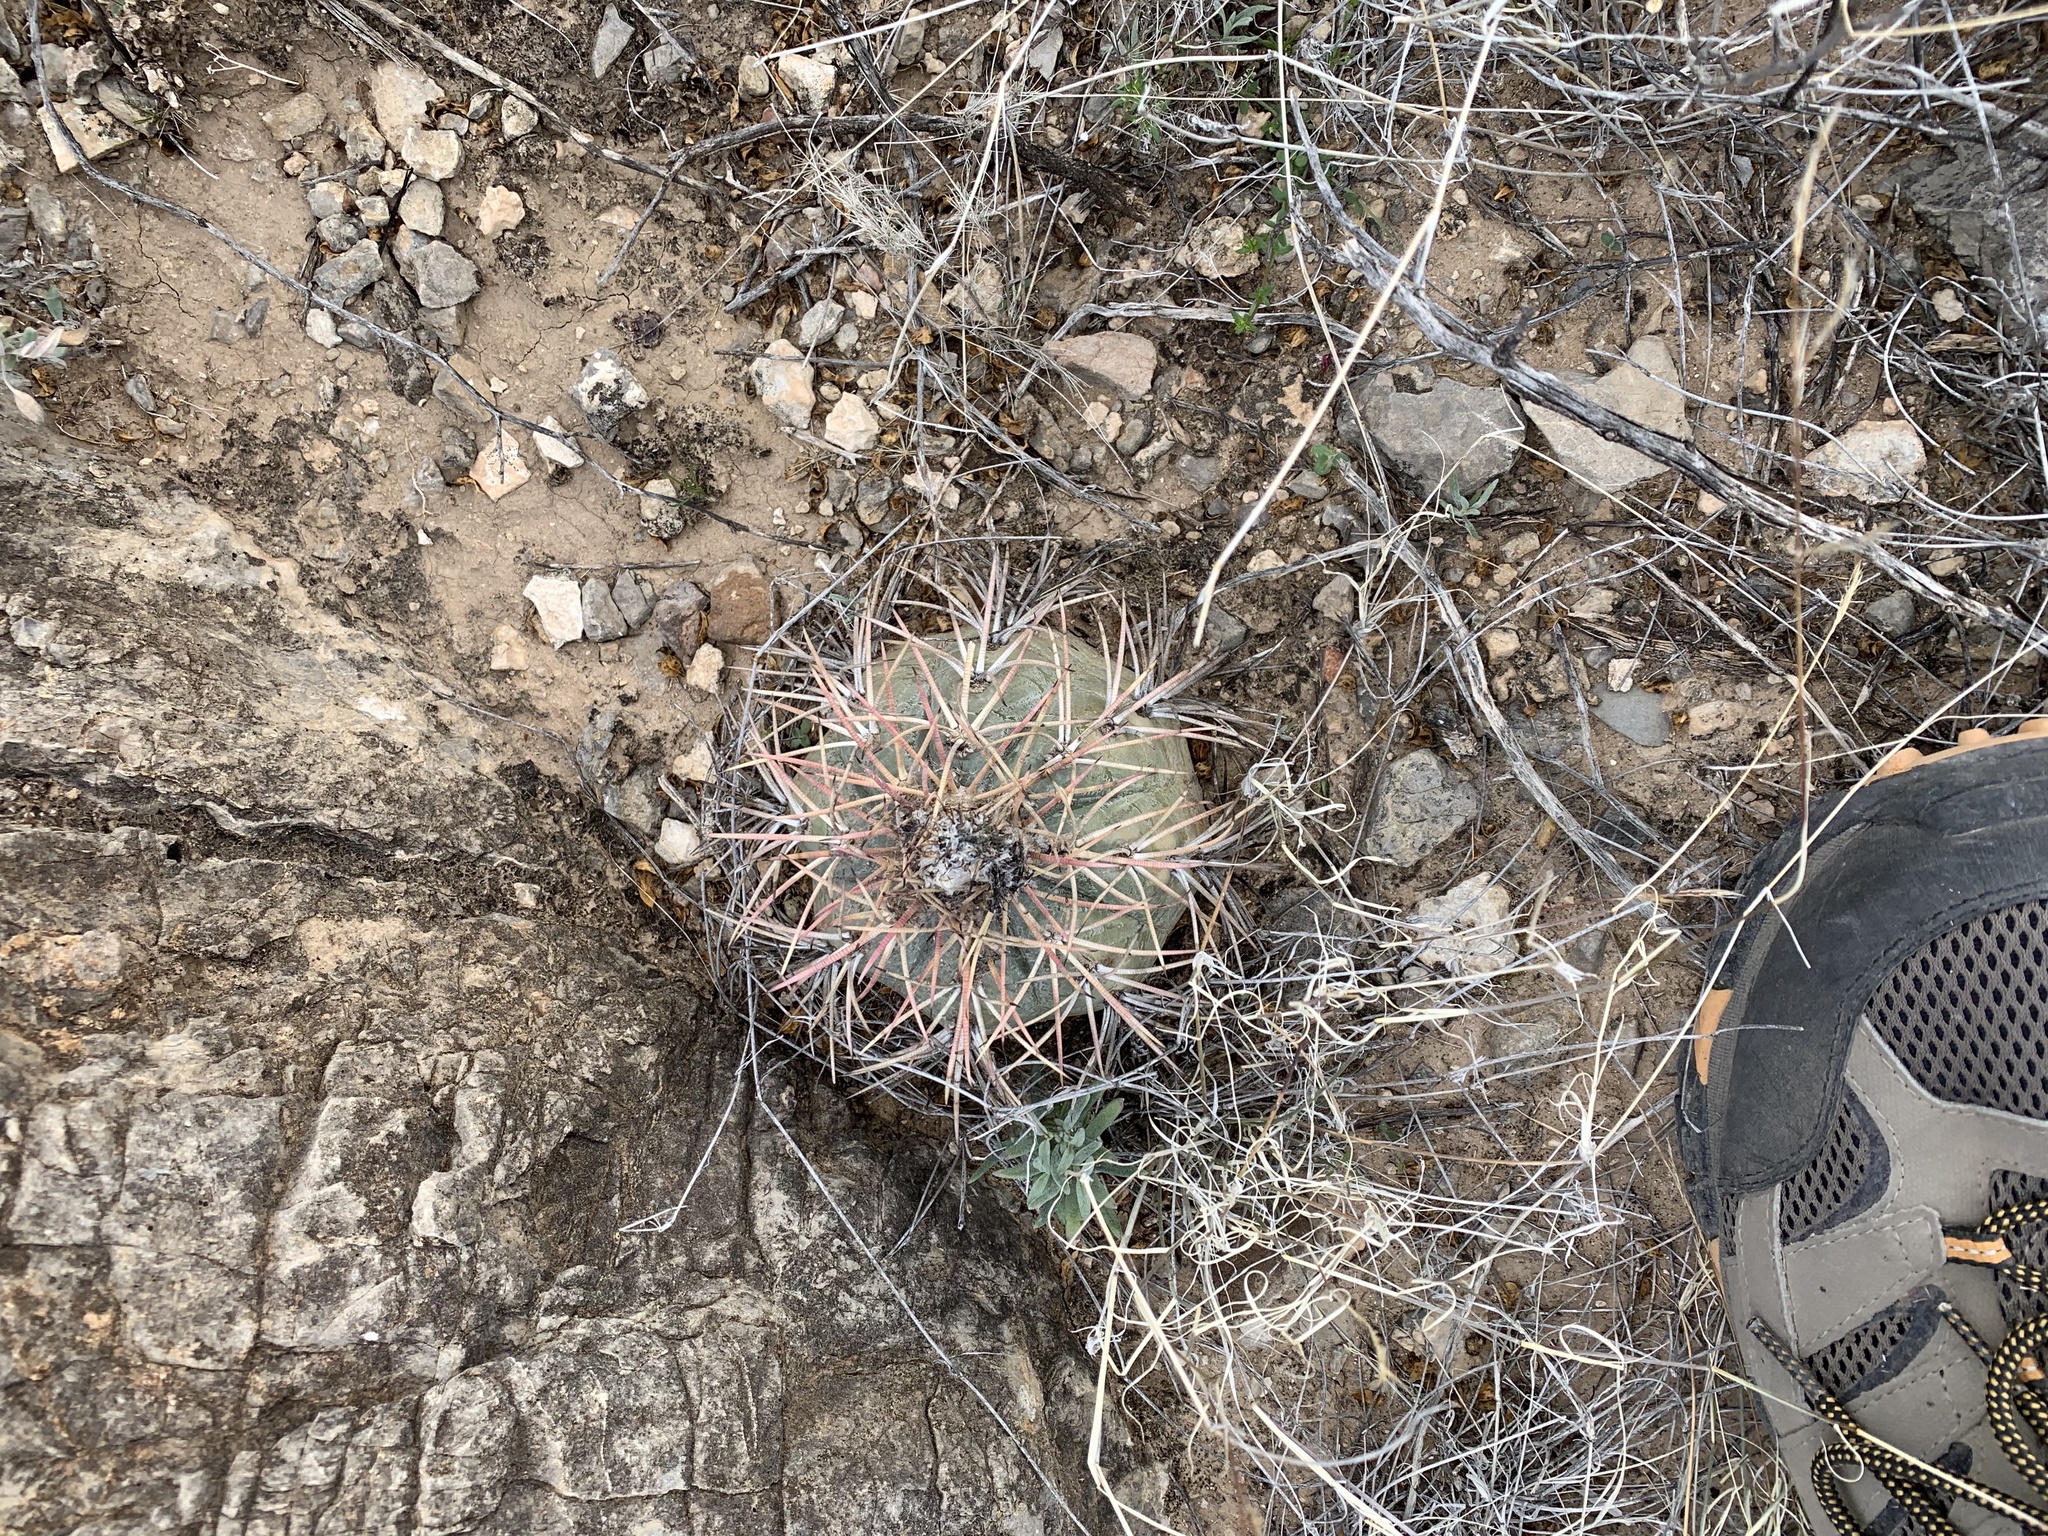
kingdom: Plantae
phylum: Tracheophyta
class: Magnoliopsida
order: Caryophyllales
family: Cactaceae
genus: Echinocactus
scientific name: Echinocactus horizonthalonius
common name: Devilshead
